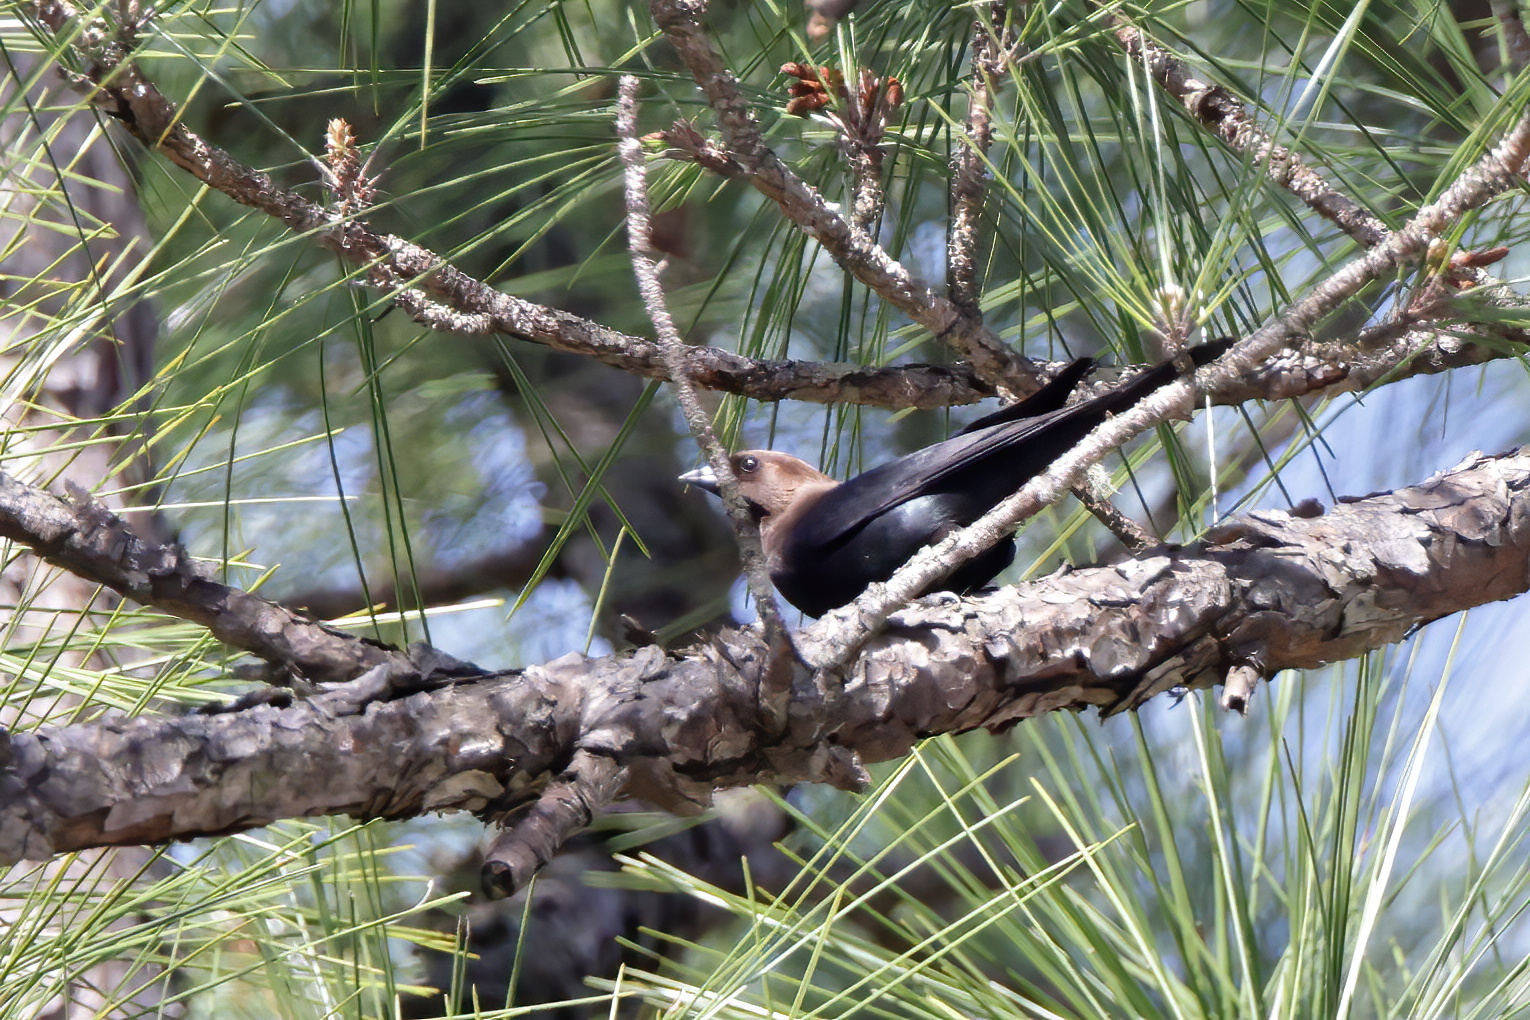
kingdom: Animalia
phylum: Chordata
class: Aves
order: Passeriformes
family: Icteridae
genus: Molothrus
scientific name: Molothrus ater
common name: Brown-headed cowbird
